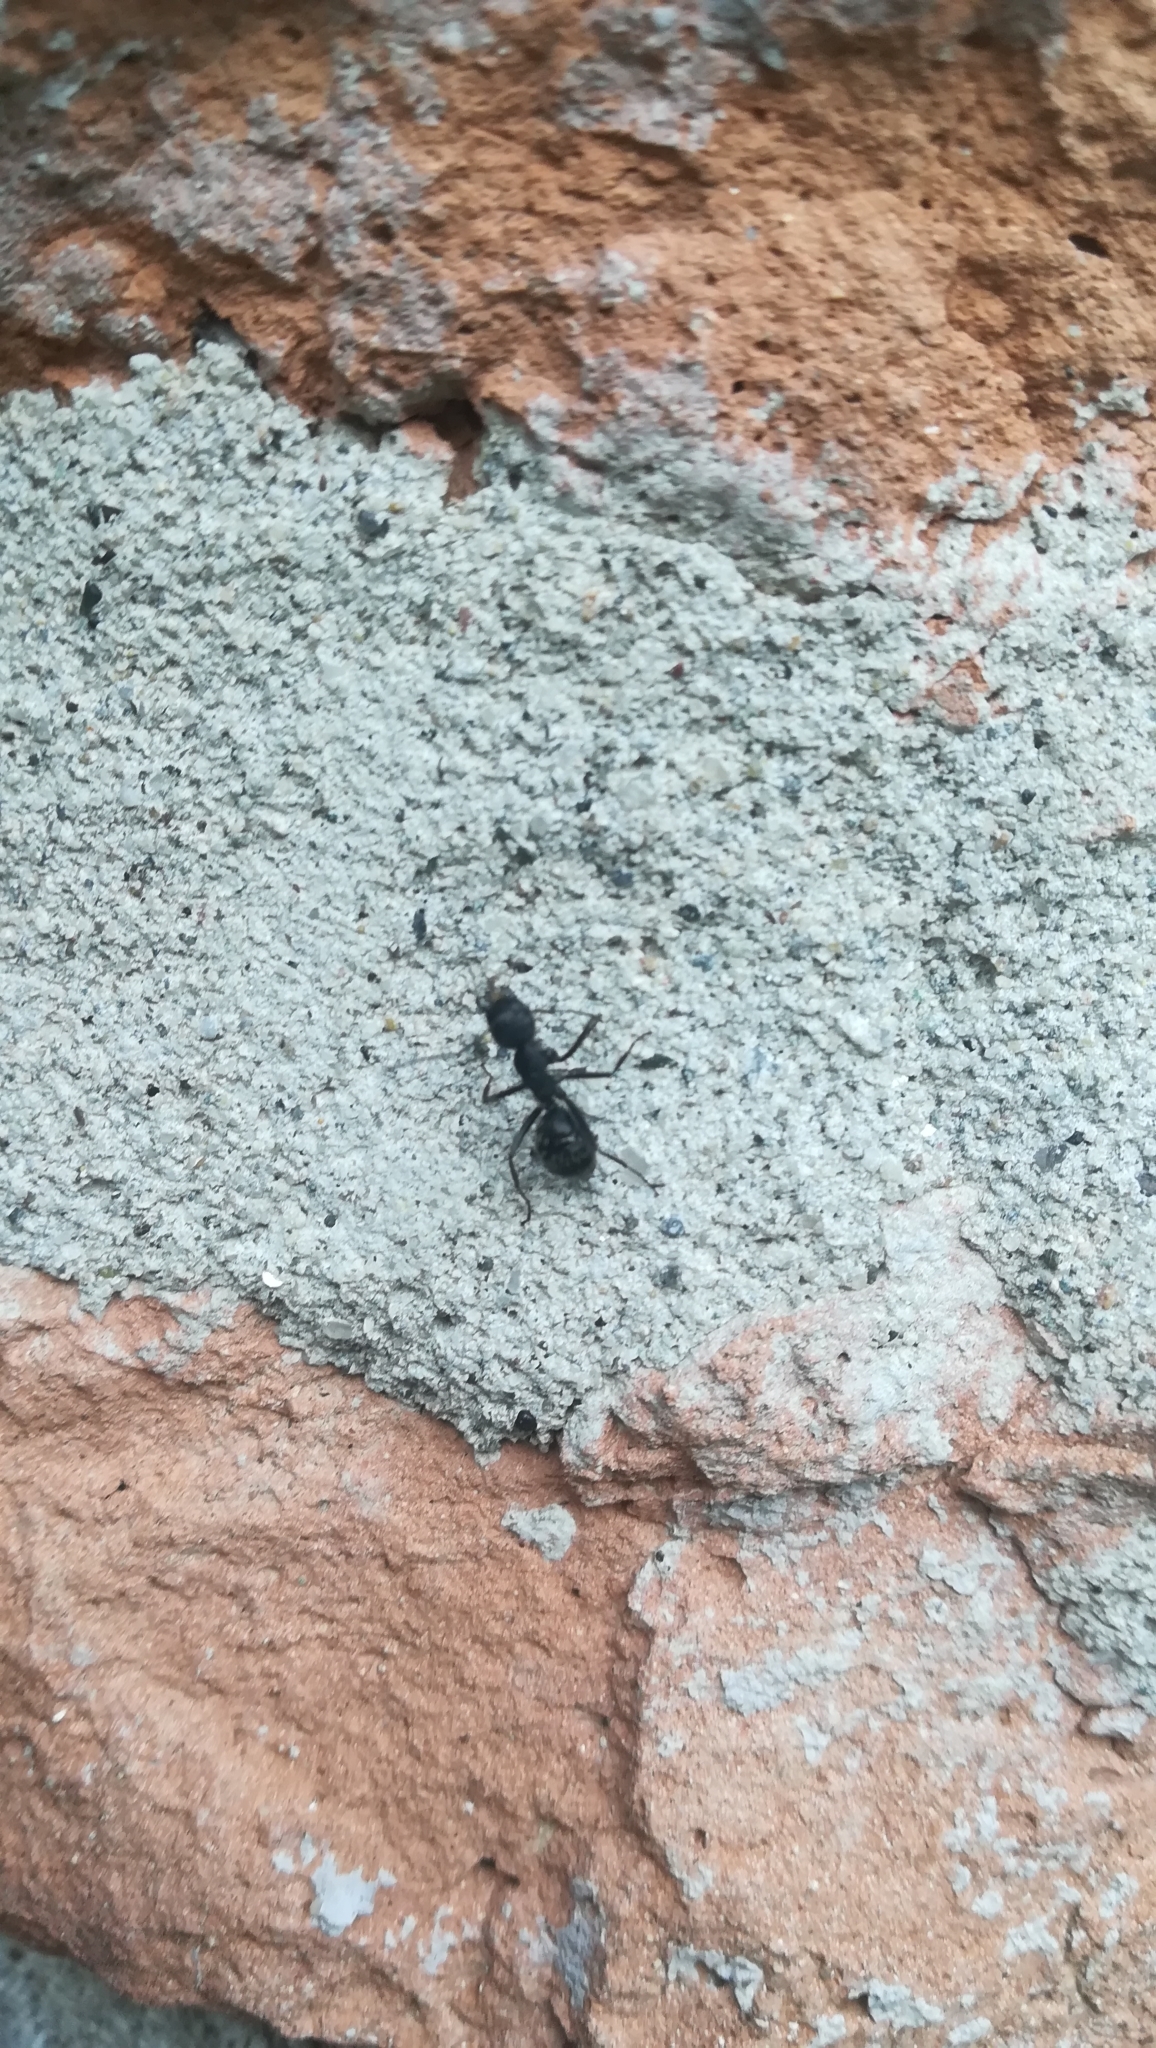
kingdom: Animalia
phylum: Arthropoda
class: Insecta
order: Hymenoptera
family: Formicidae
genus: Camponotus
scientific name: Camponotus vagus
